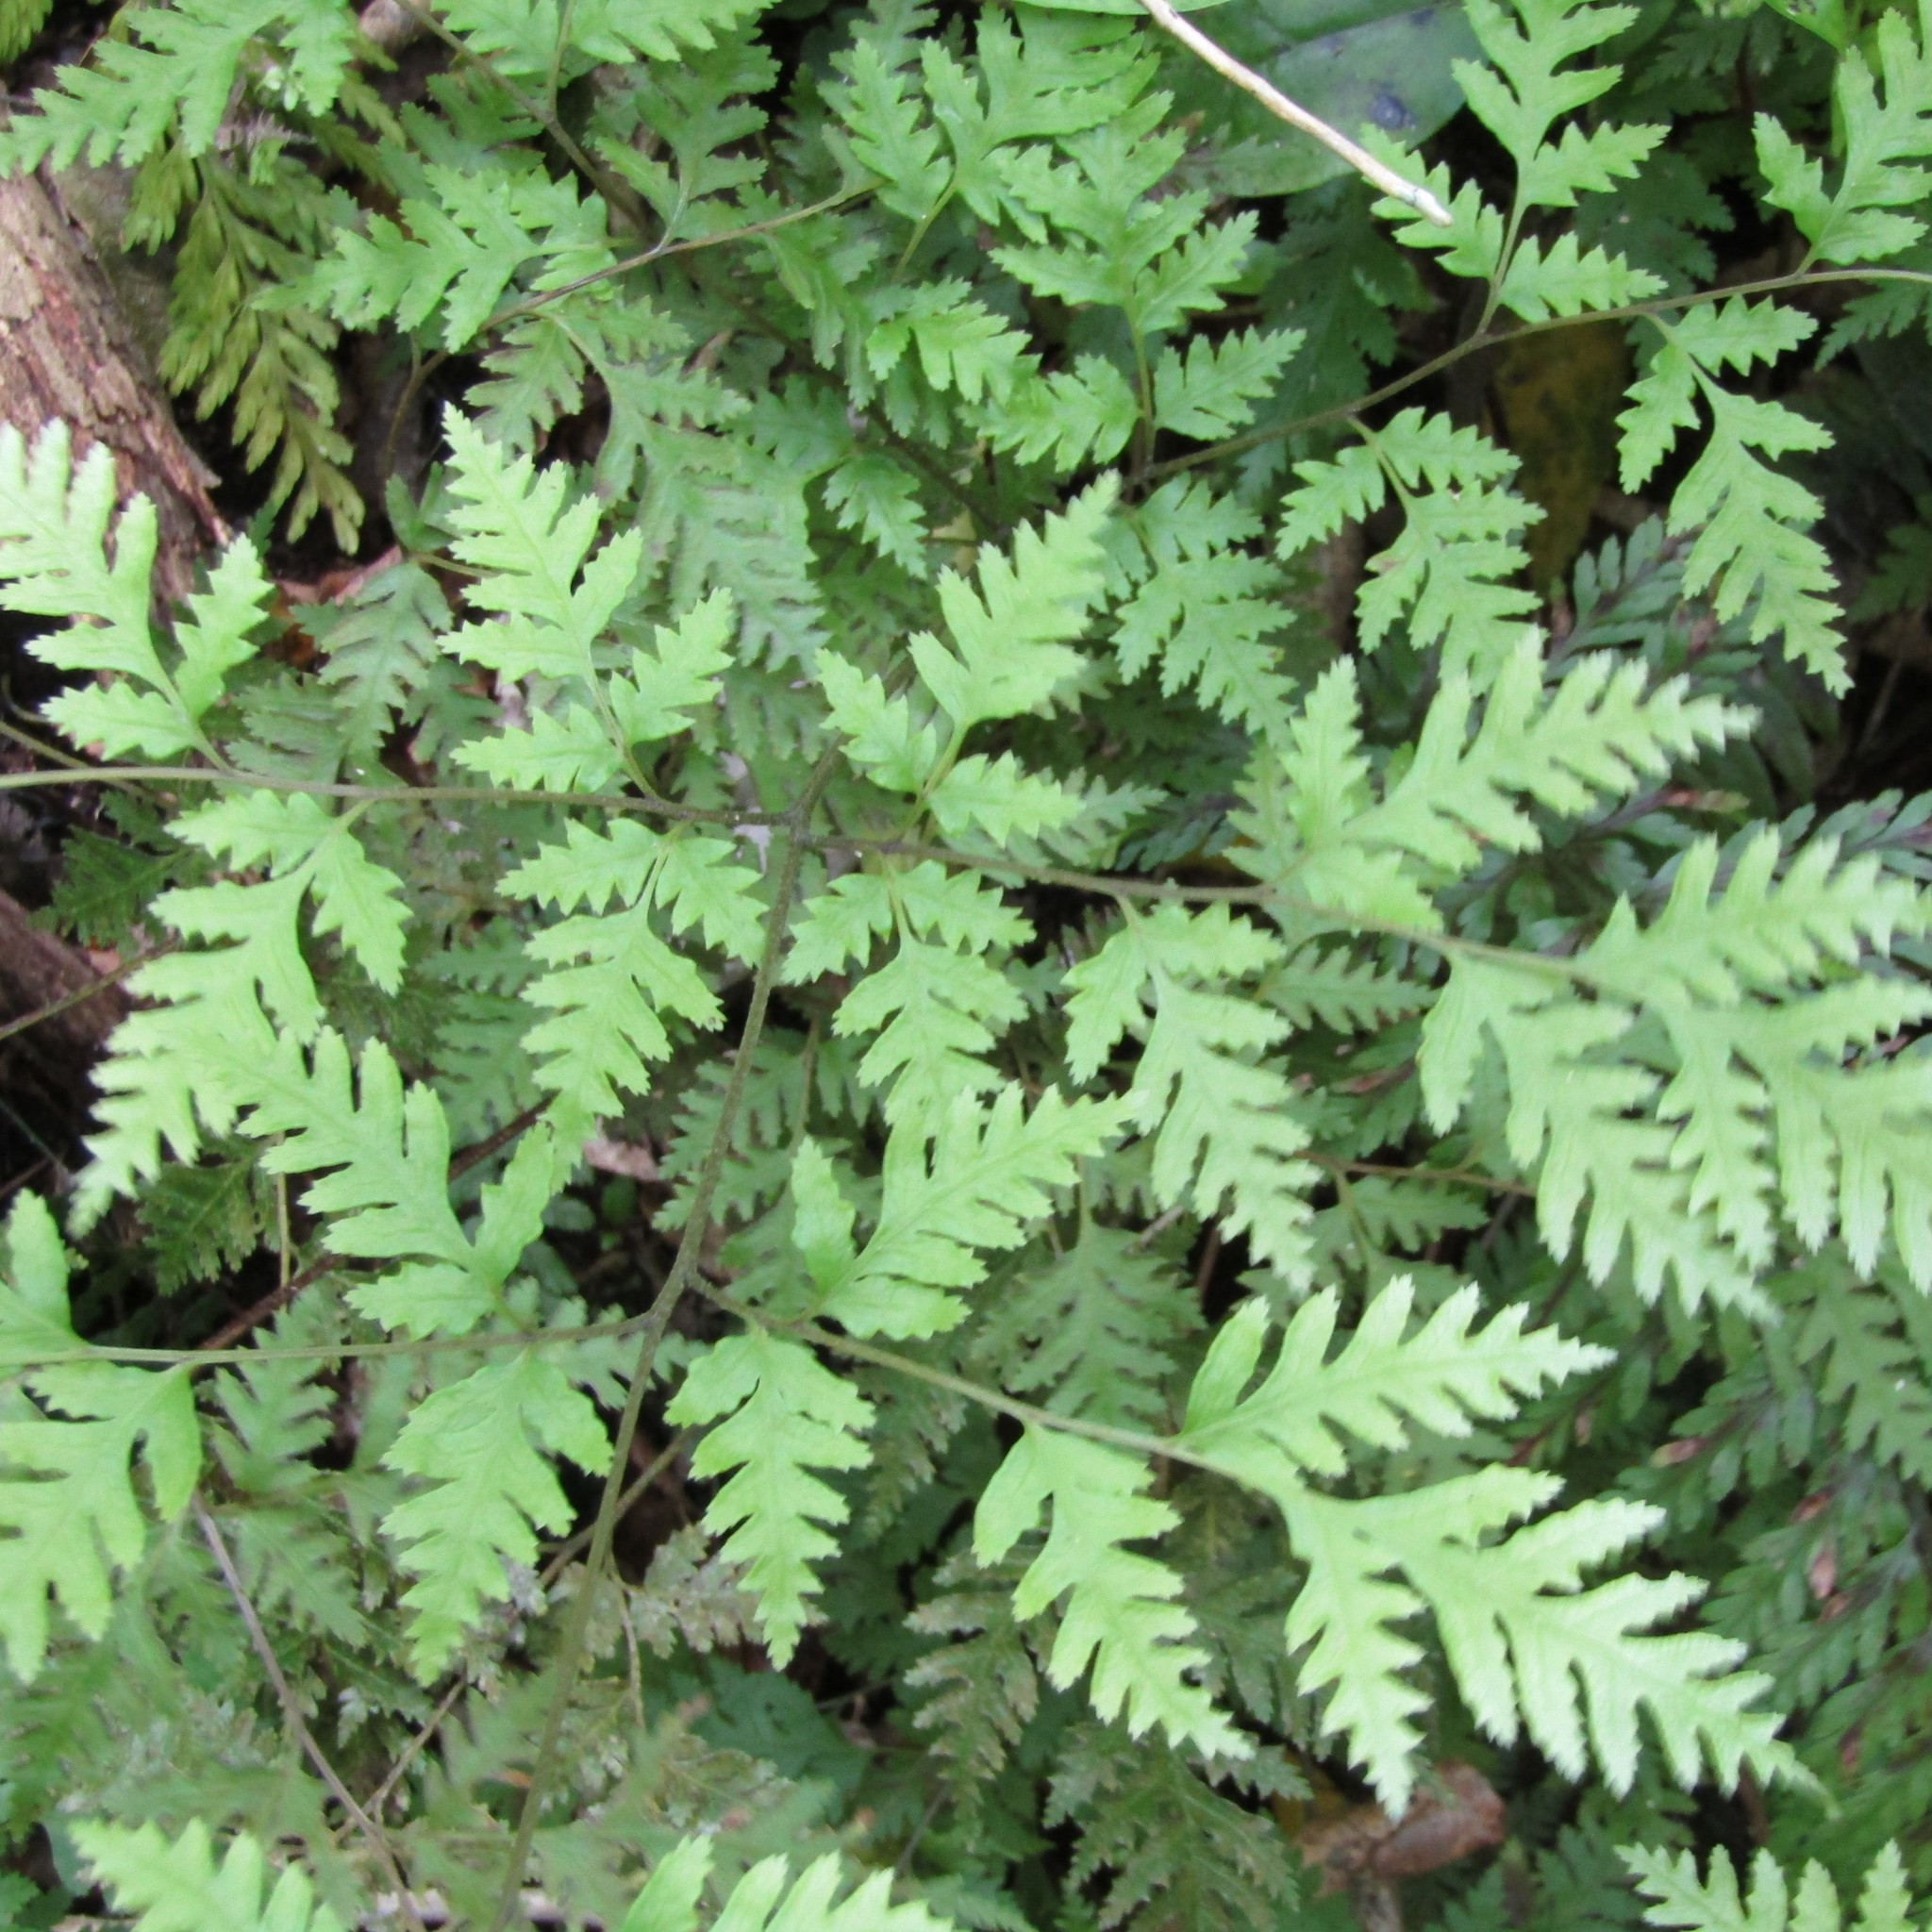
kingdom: Plantae
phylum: Tracheophyta
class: Polypodiopsida
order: Polypodiales
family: Pteridaceae
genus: Pteris
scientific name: Pteris macilenta
